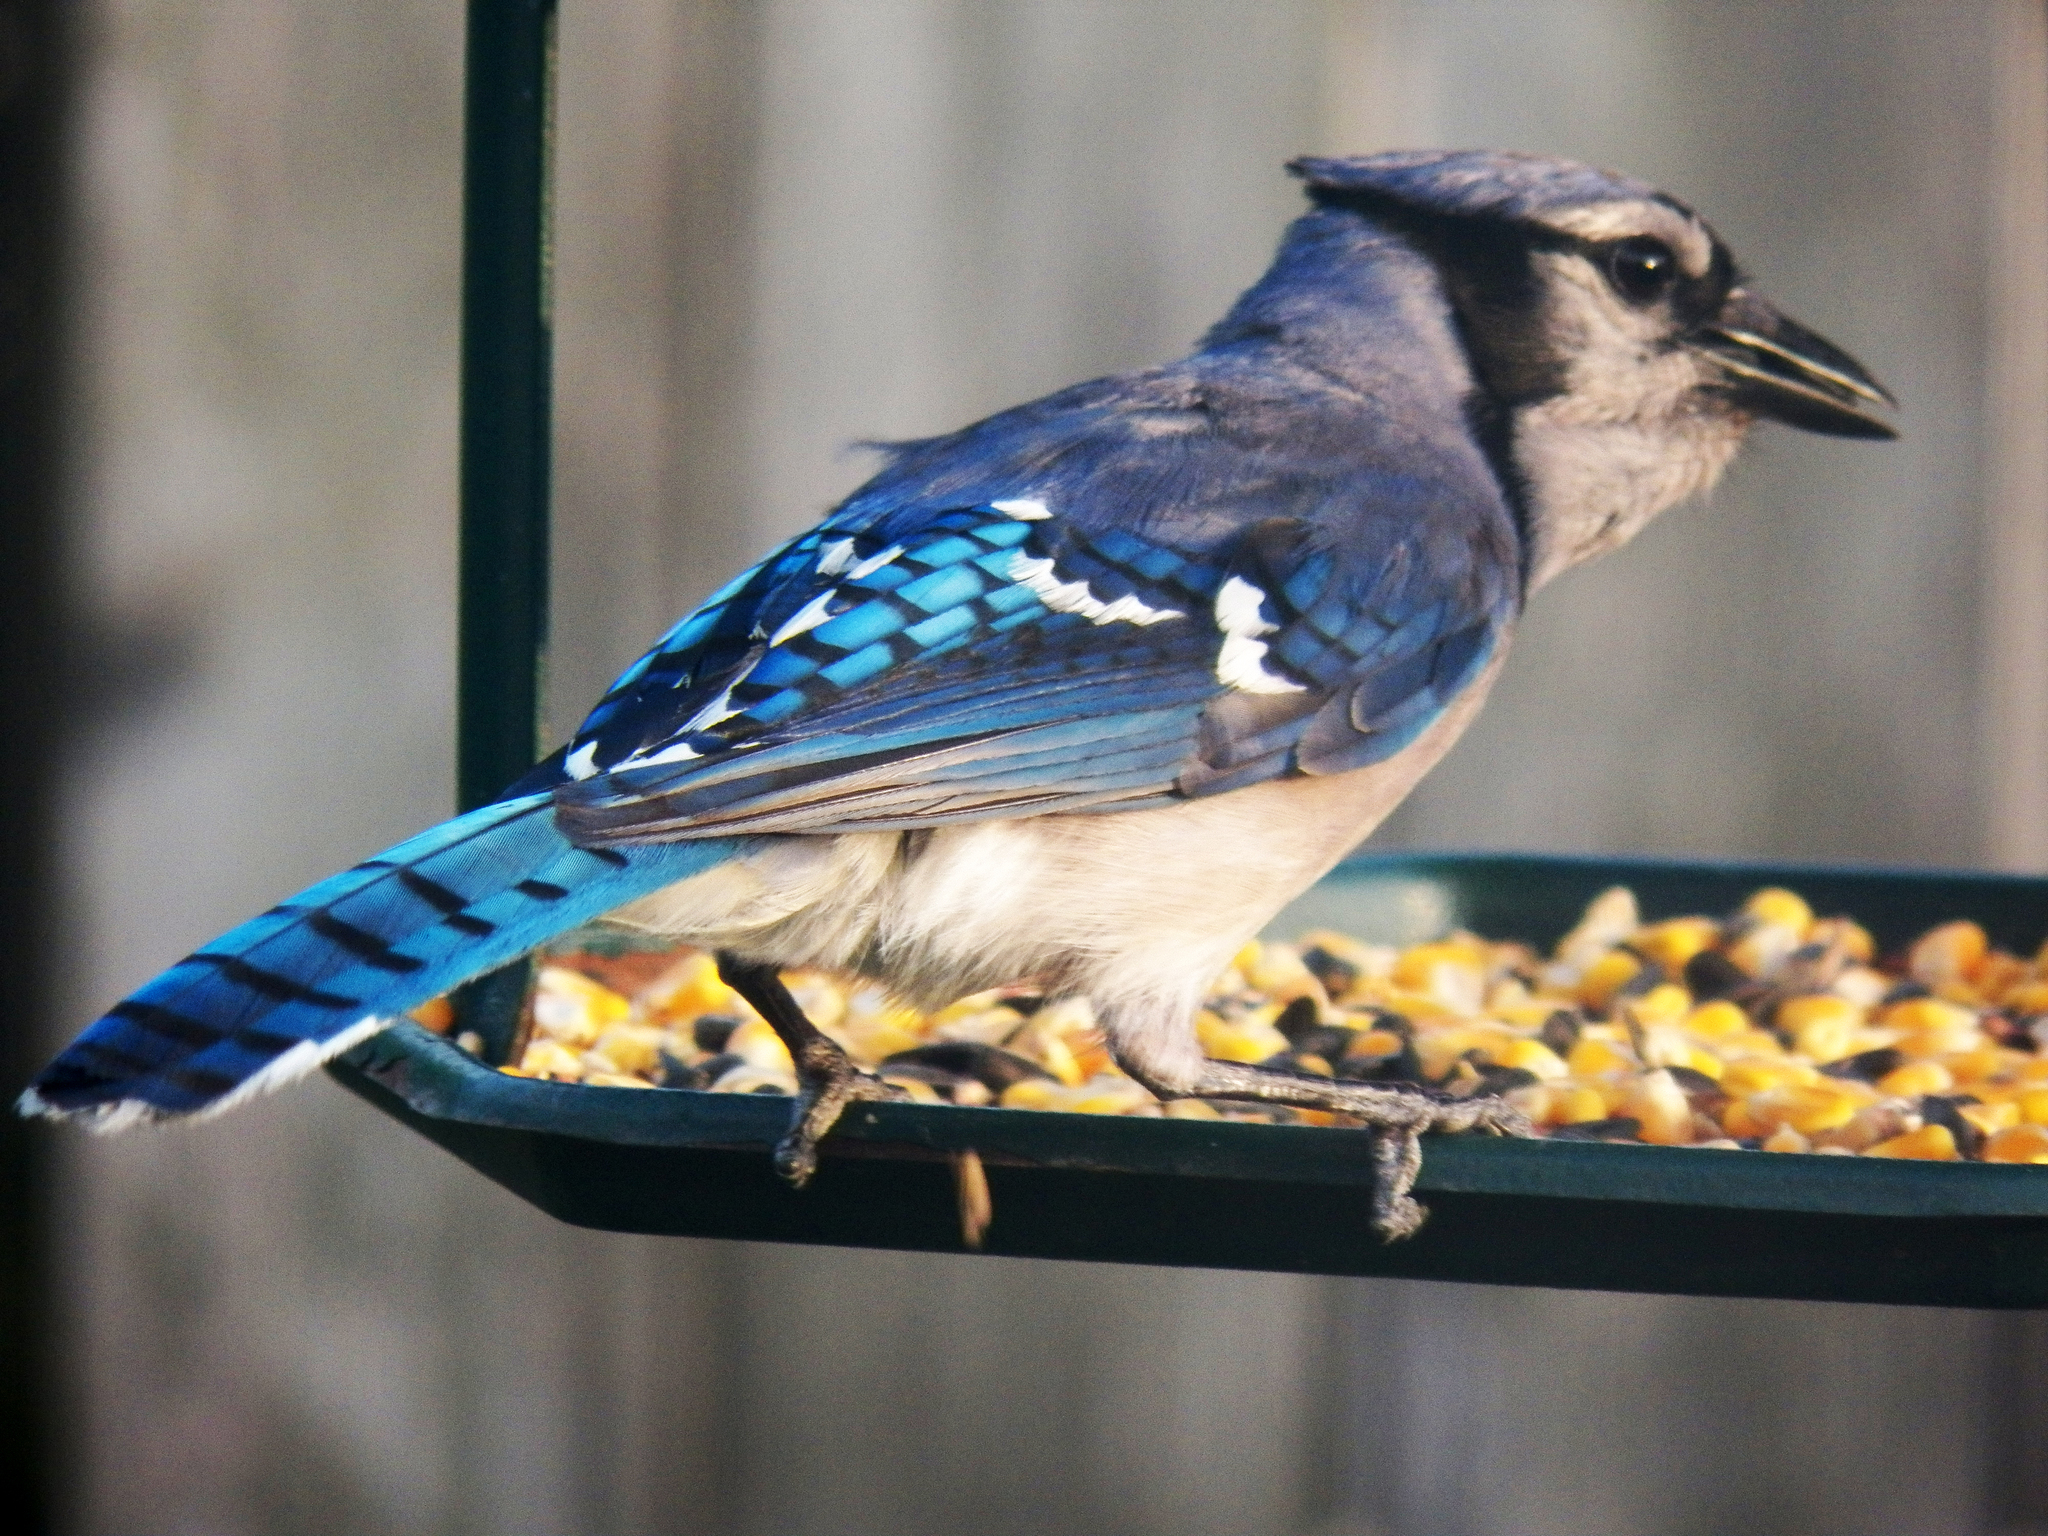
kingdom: Animalia
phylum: Chordata
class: Aves
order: Passeriformes
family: Corvidae
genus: Cyanocitta
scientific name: Cyanocitta cristata
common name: Blue jay
